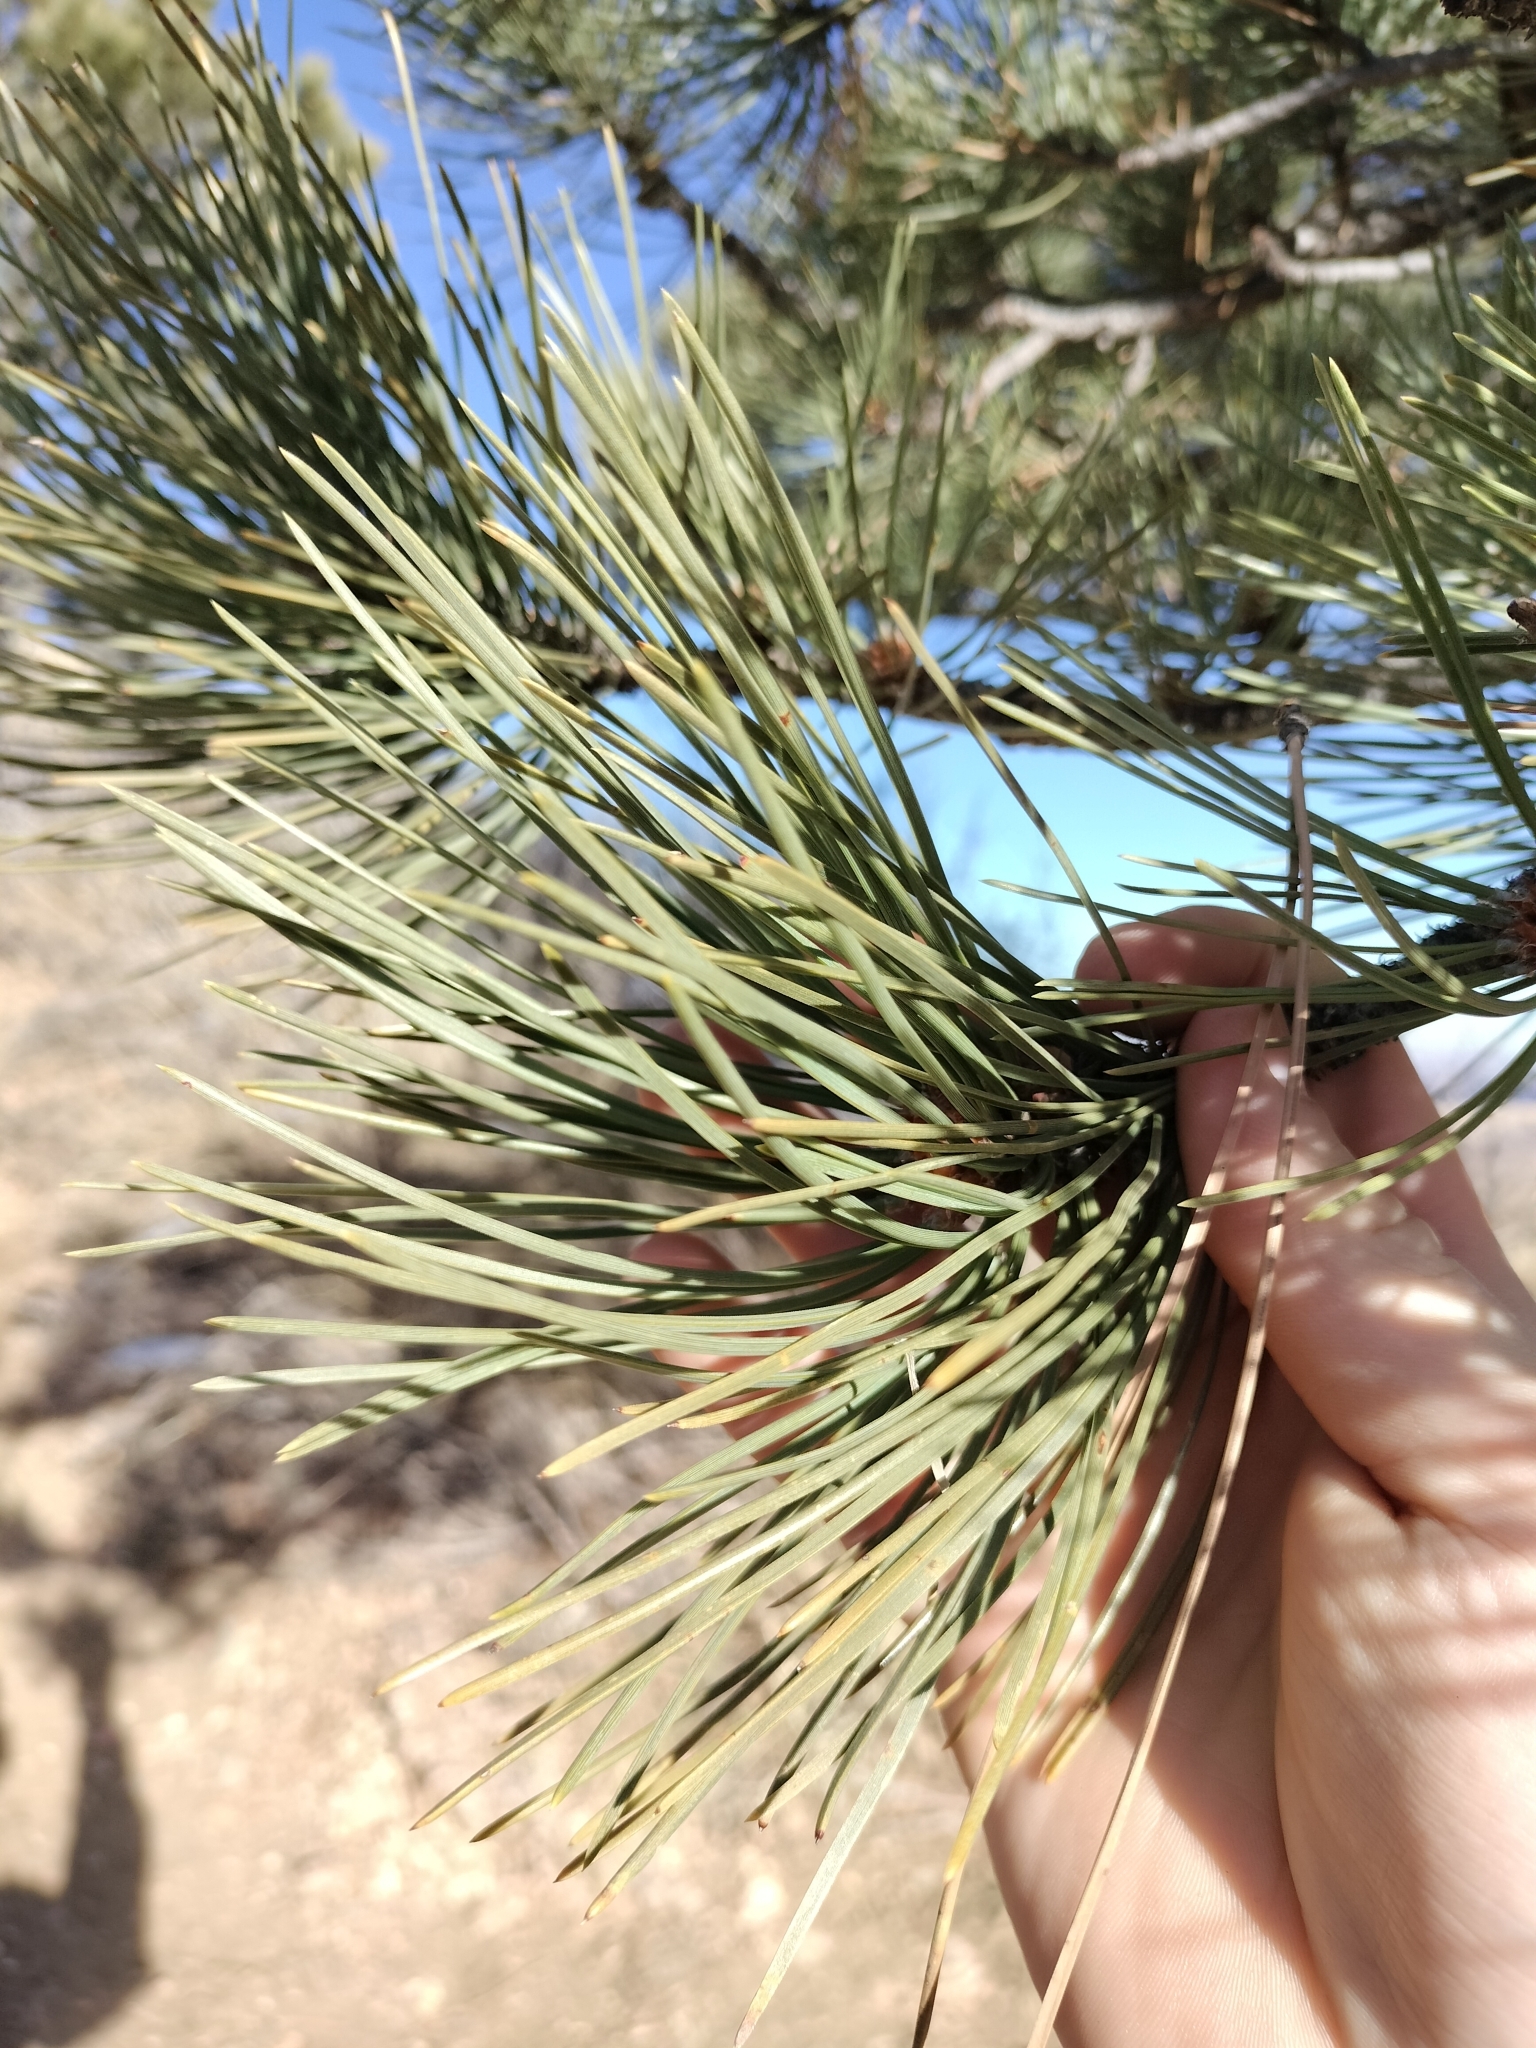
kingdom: Plantae
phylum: Tracheophyta
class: Pinopsida
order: Pinales
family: Pinaceae
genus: Pinus
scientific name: Pinus ponderosa
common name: Western yellow-pine
